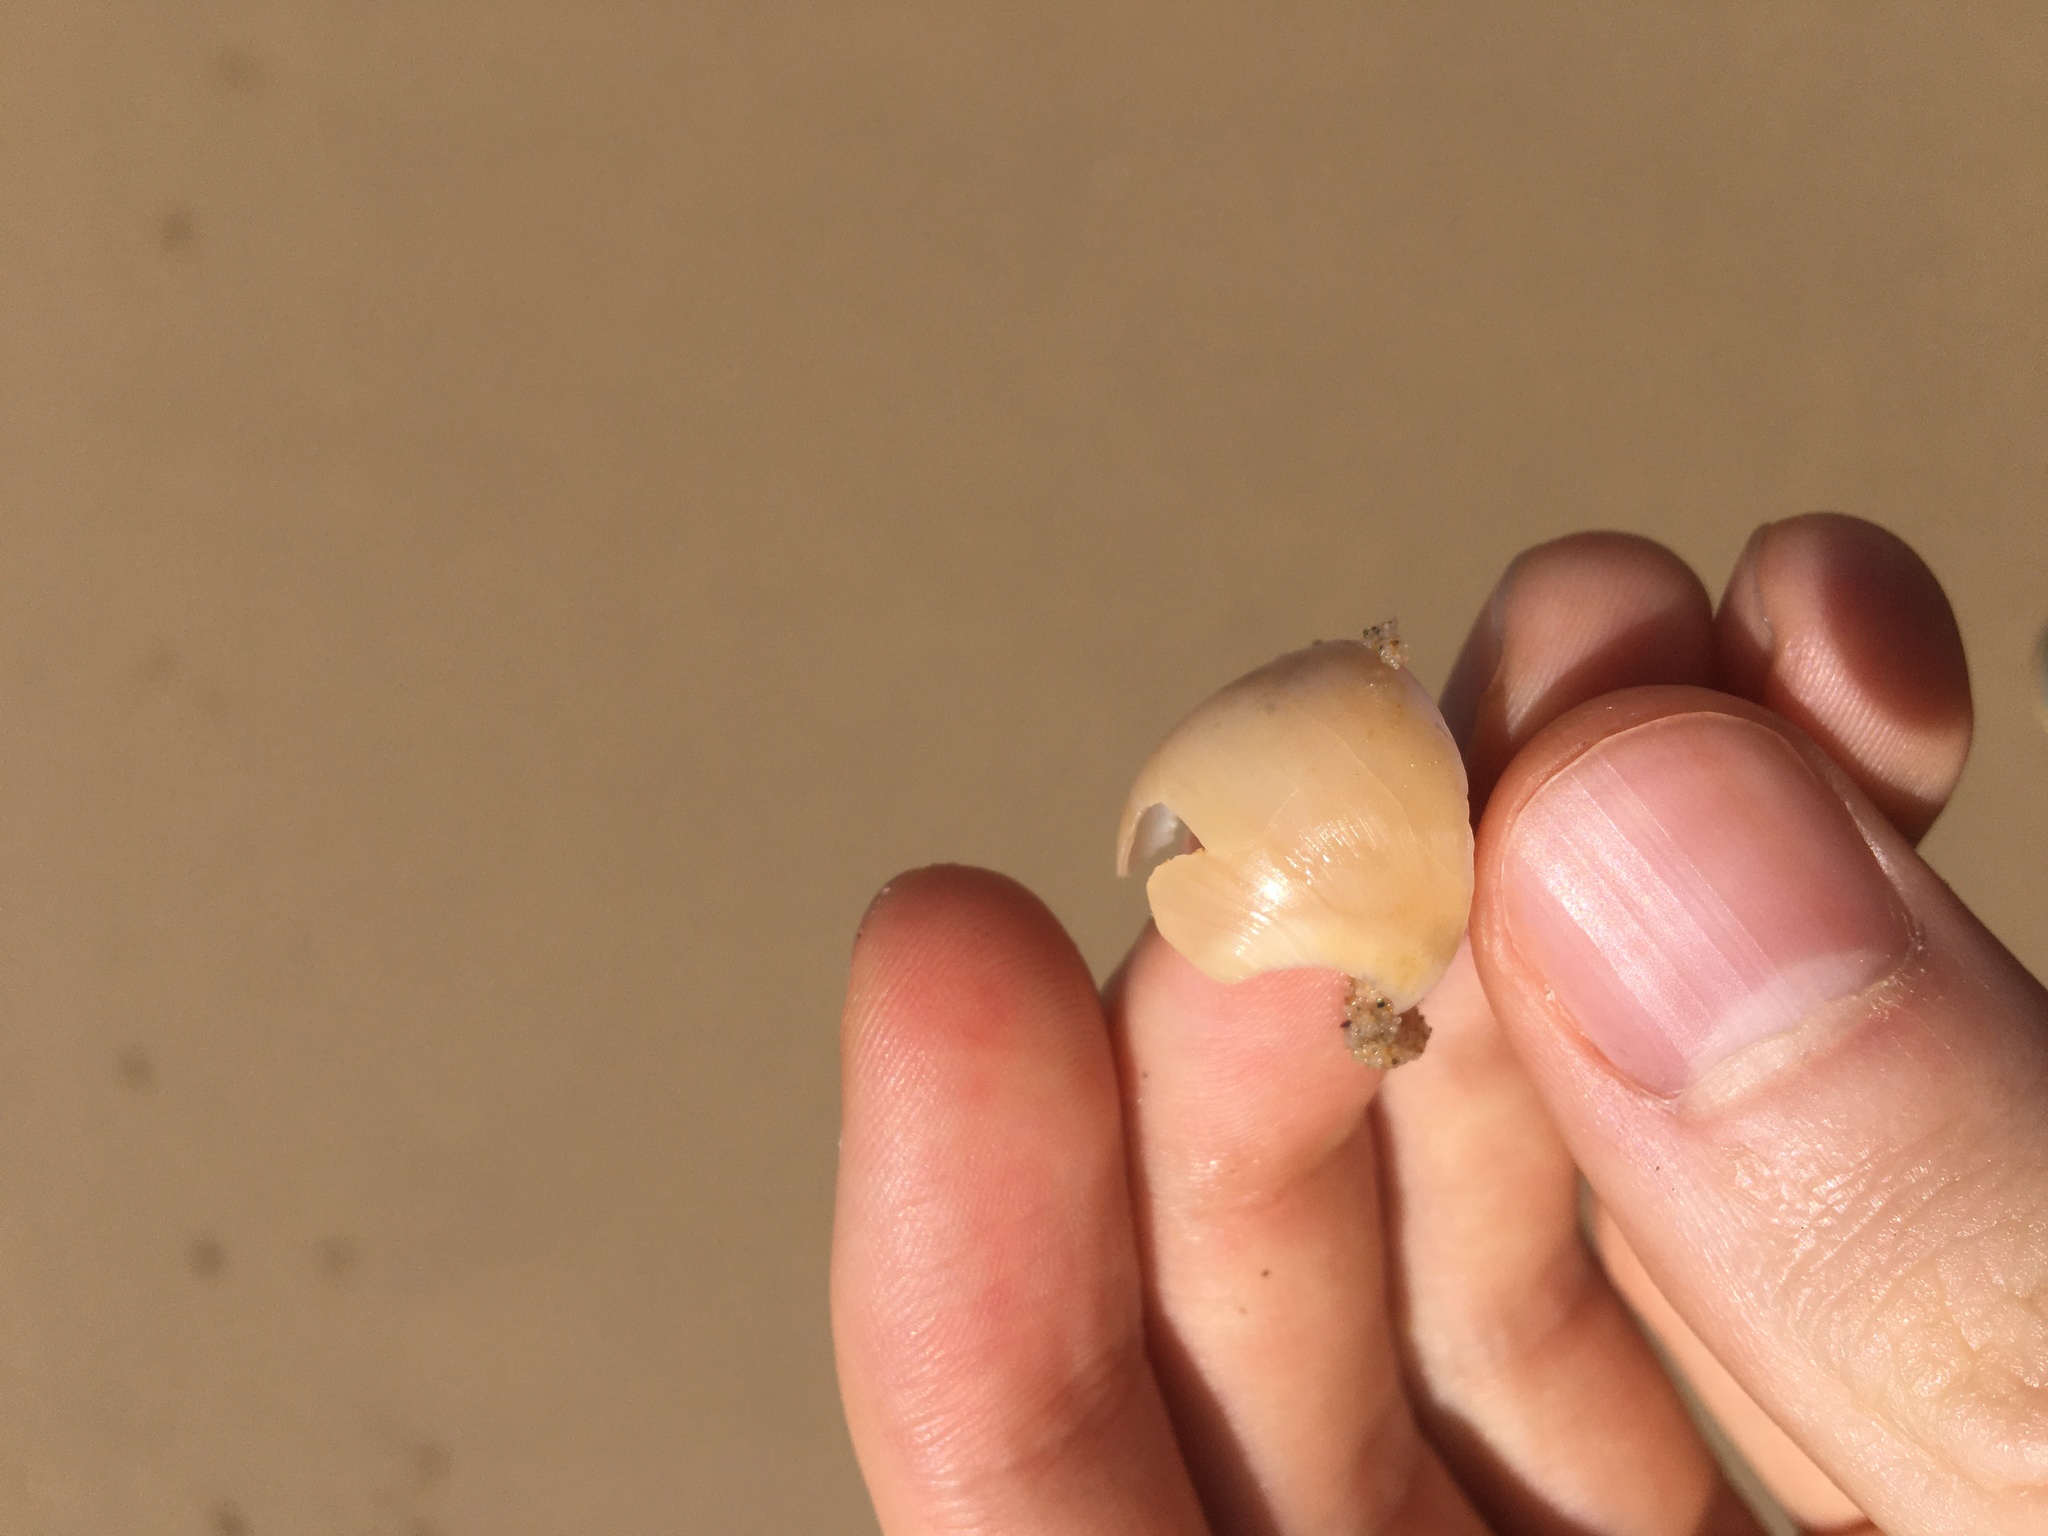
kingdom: Animalia
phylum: Mollusca
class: Gastropoda
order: Littorinimorpha
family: Naticidae
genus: Neverita
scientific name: Neverita didyma
